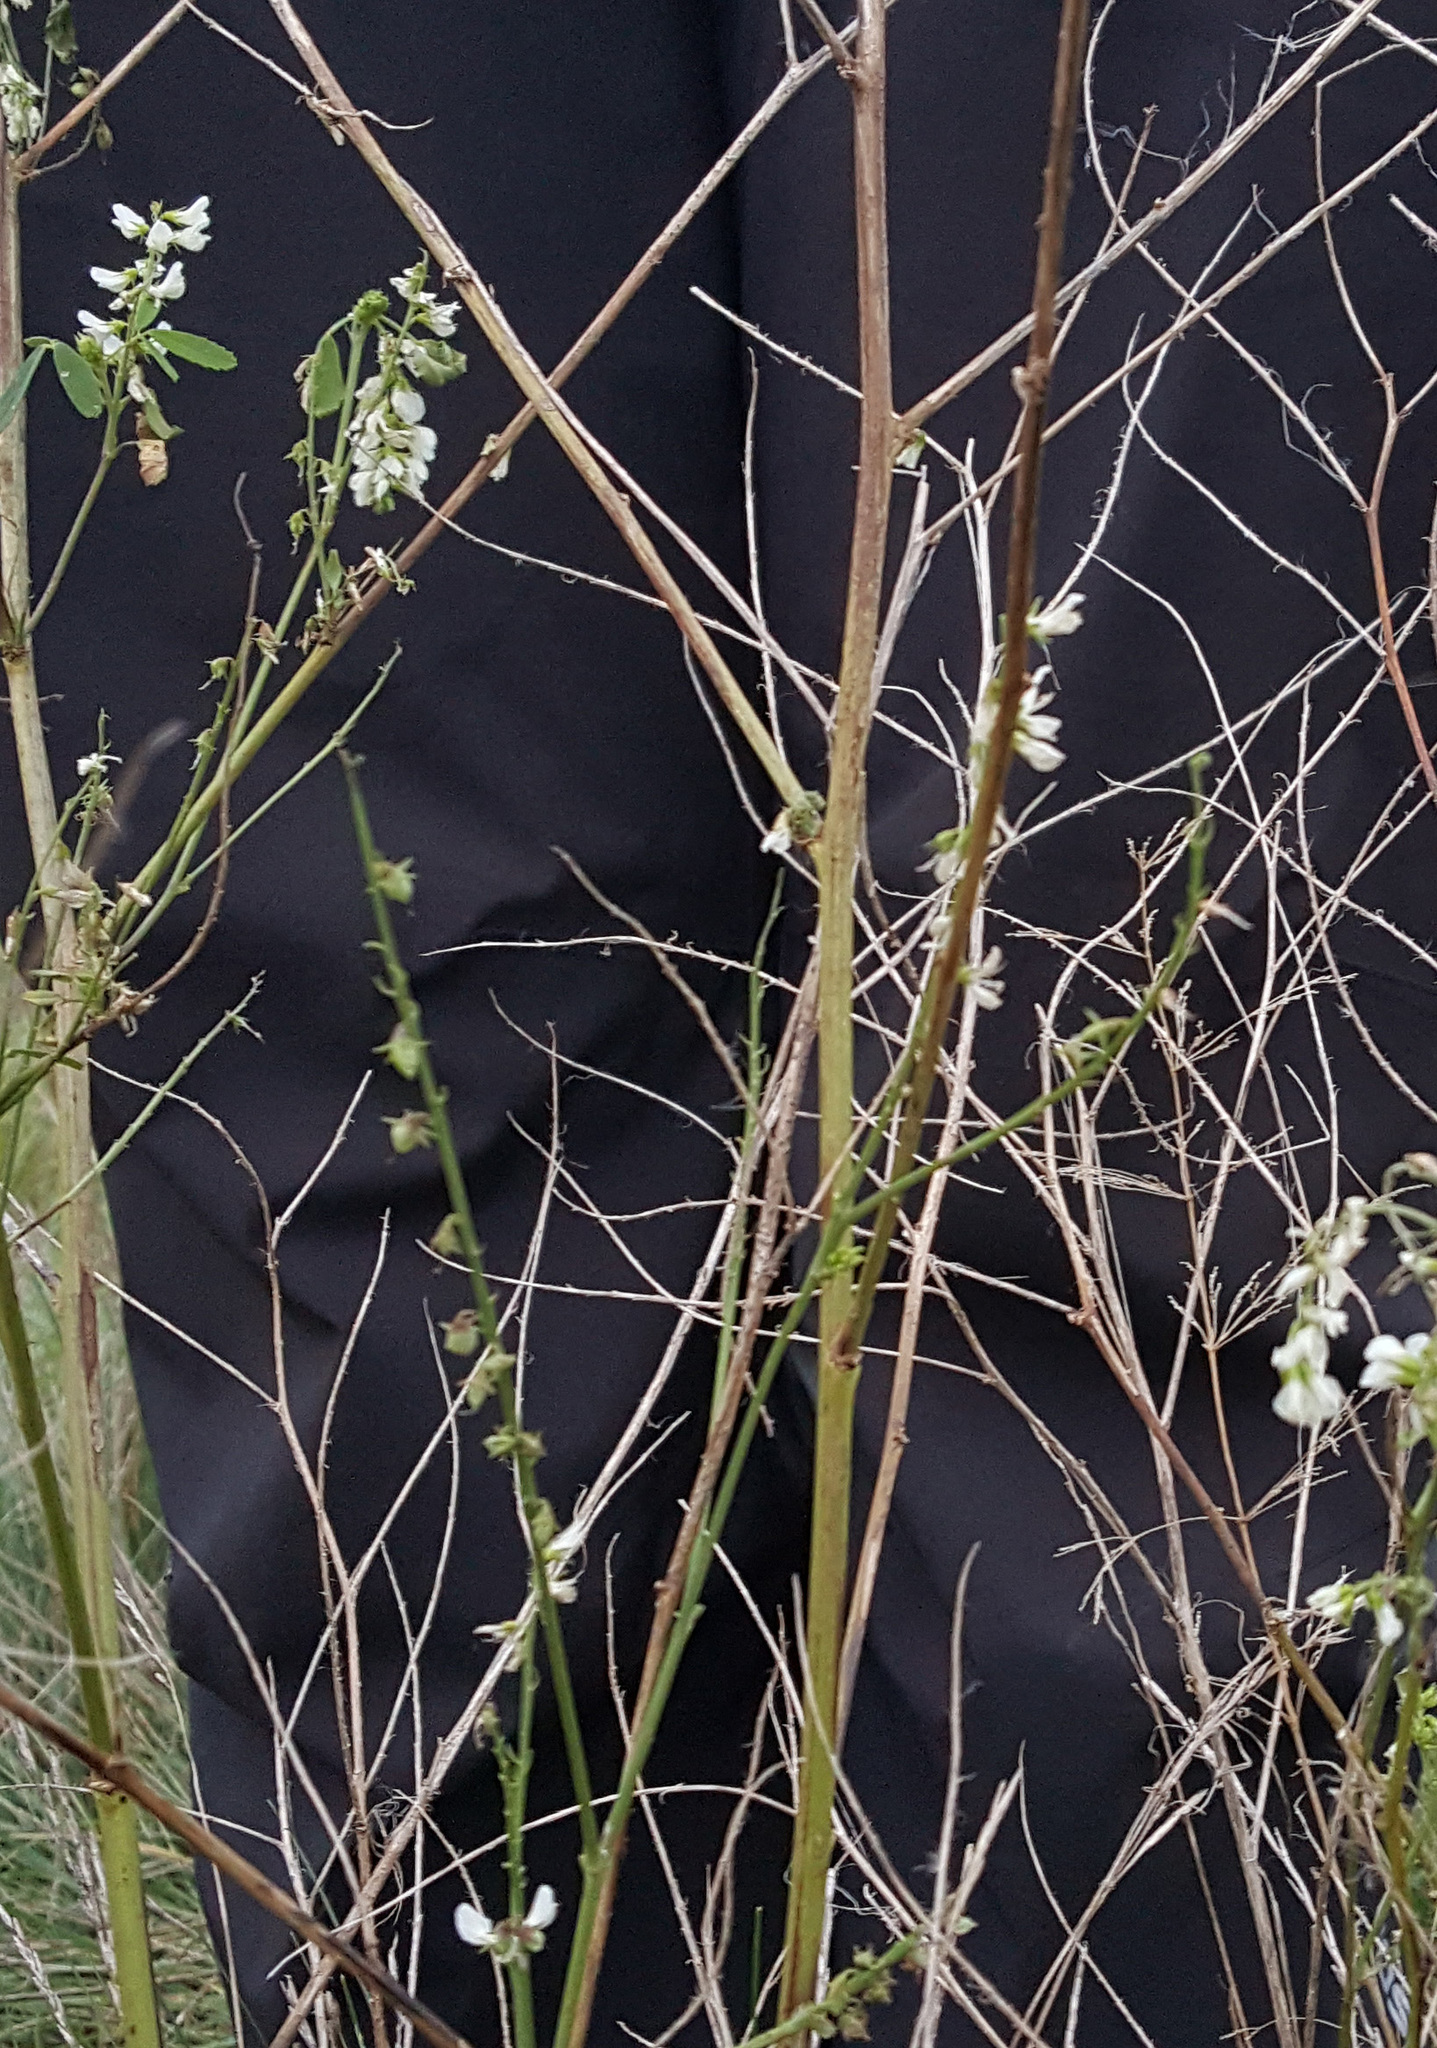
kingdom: Plantae
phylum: Tracheophyta
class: Magnoliopsida
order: Fabales
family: Fabaceae
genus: Melilotus
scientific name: Melilotus albus
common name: White melilot
